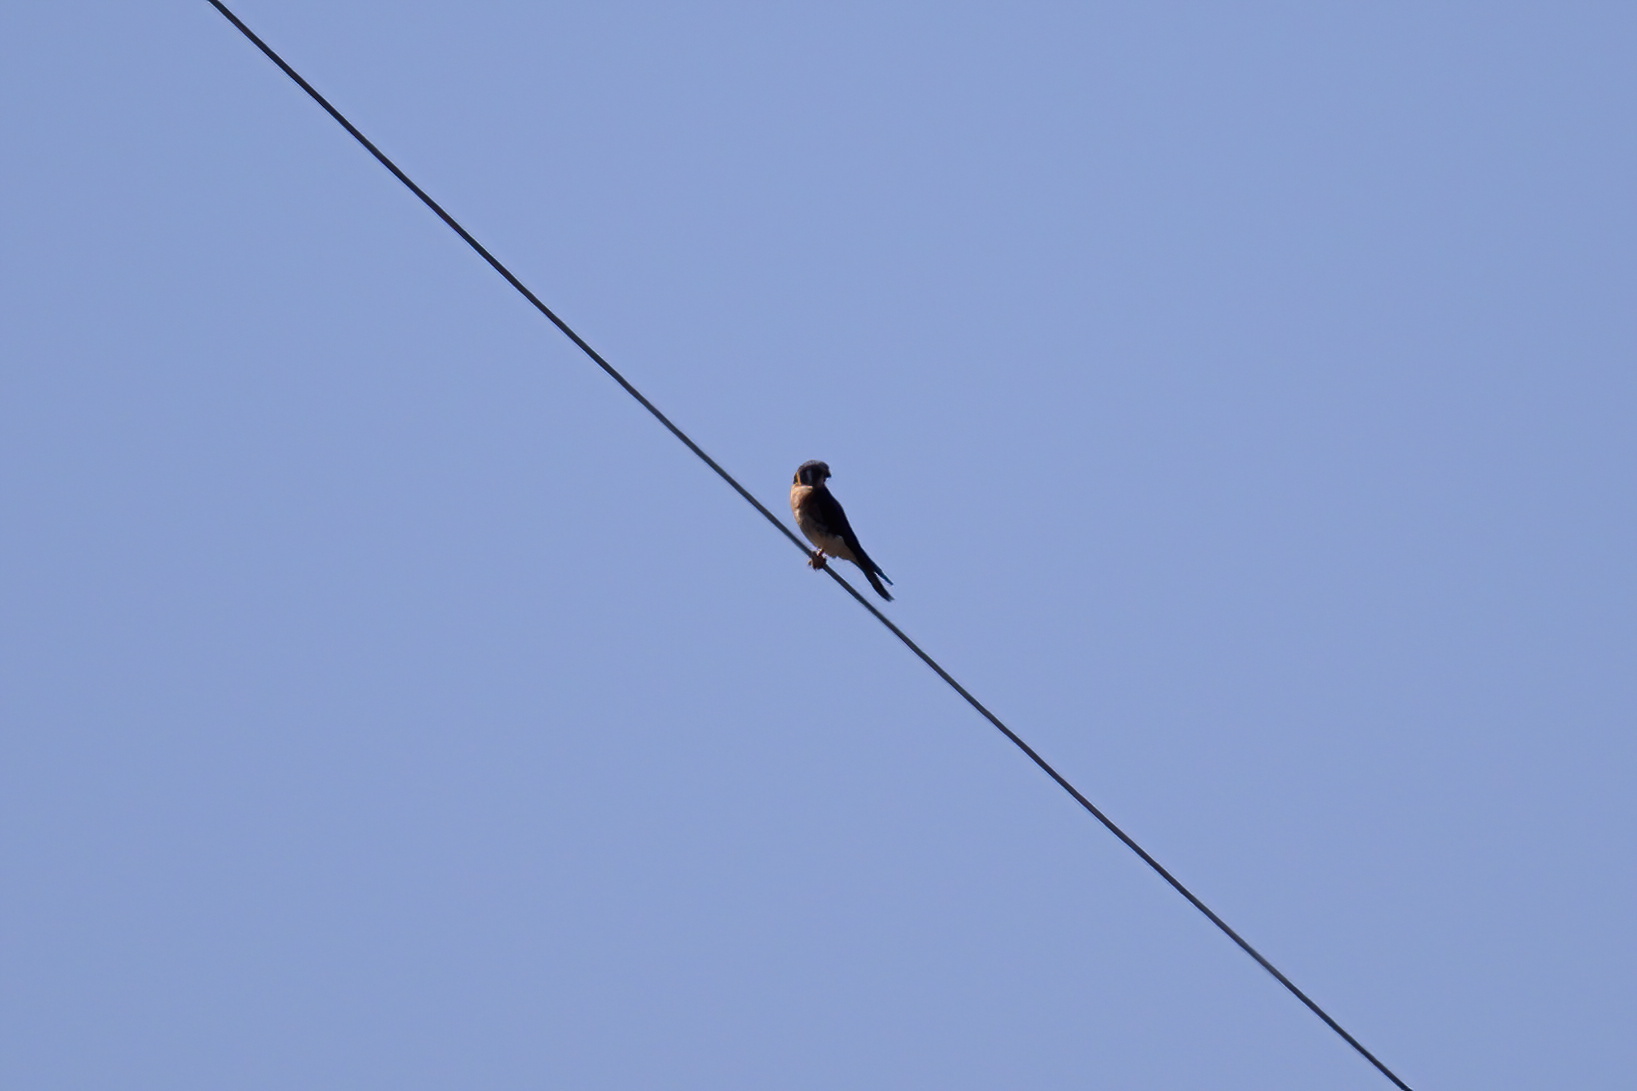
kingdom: Animalia
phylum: Chordata
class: Aves
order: Falconiformes
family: Falconidae
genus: Falco
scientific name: Falco sparverius
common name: American kestrel
